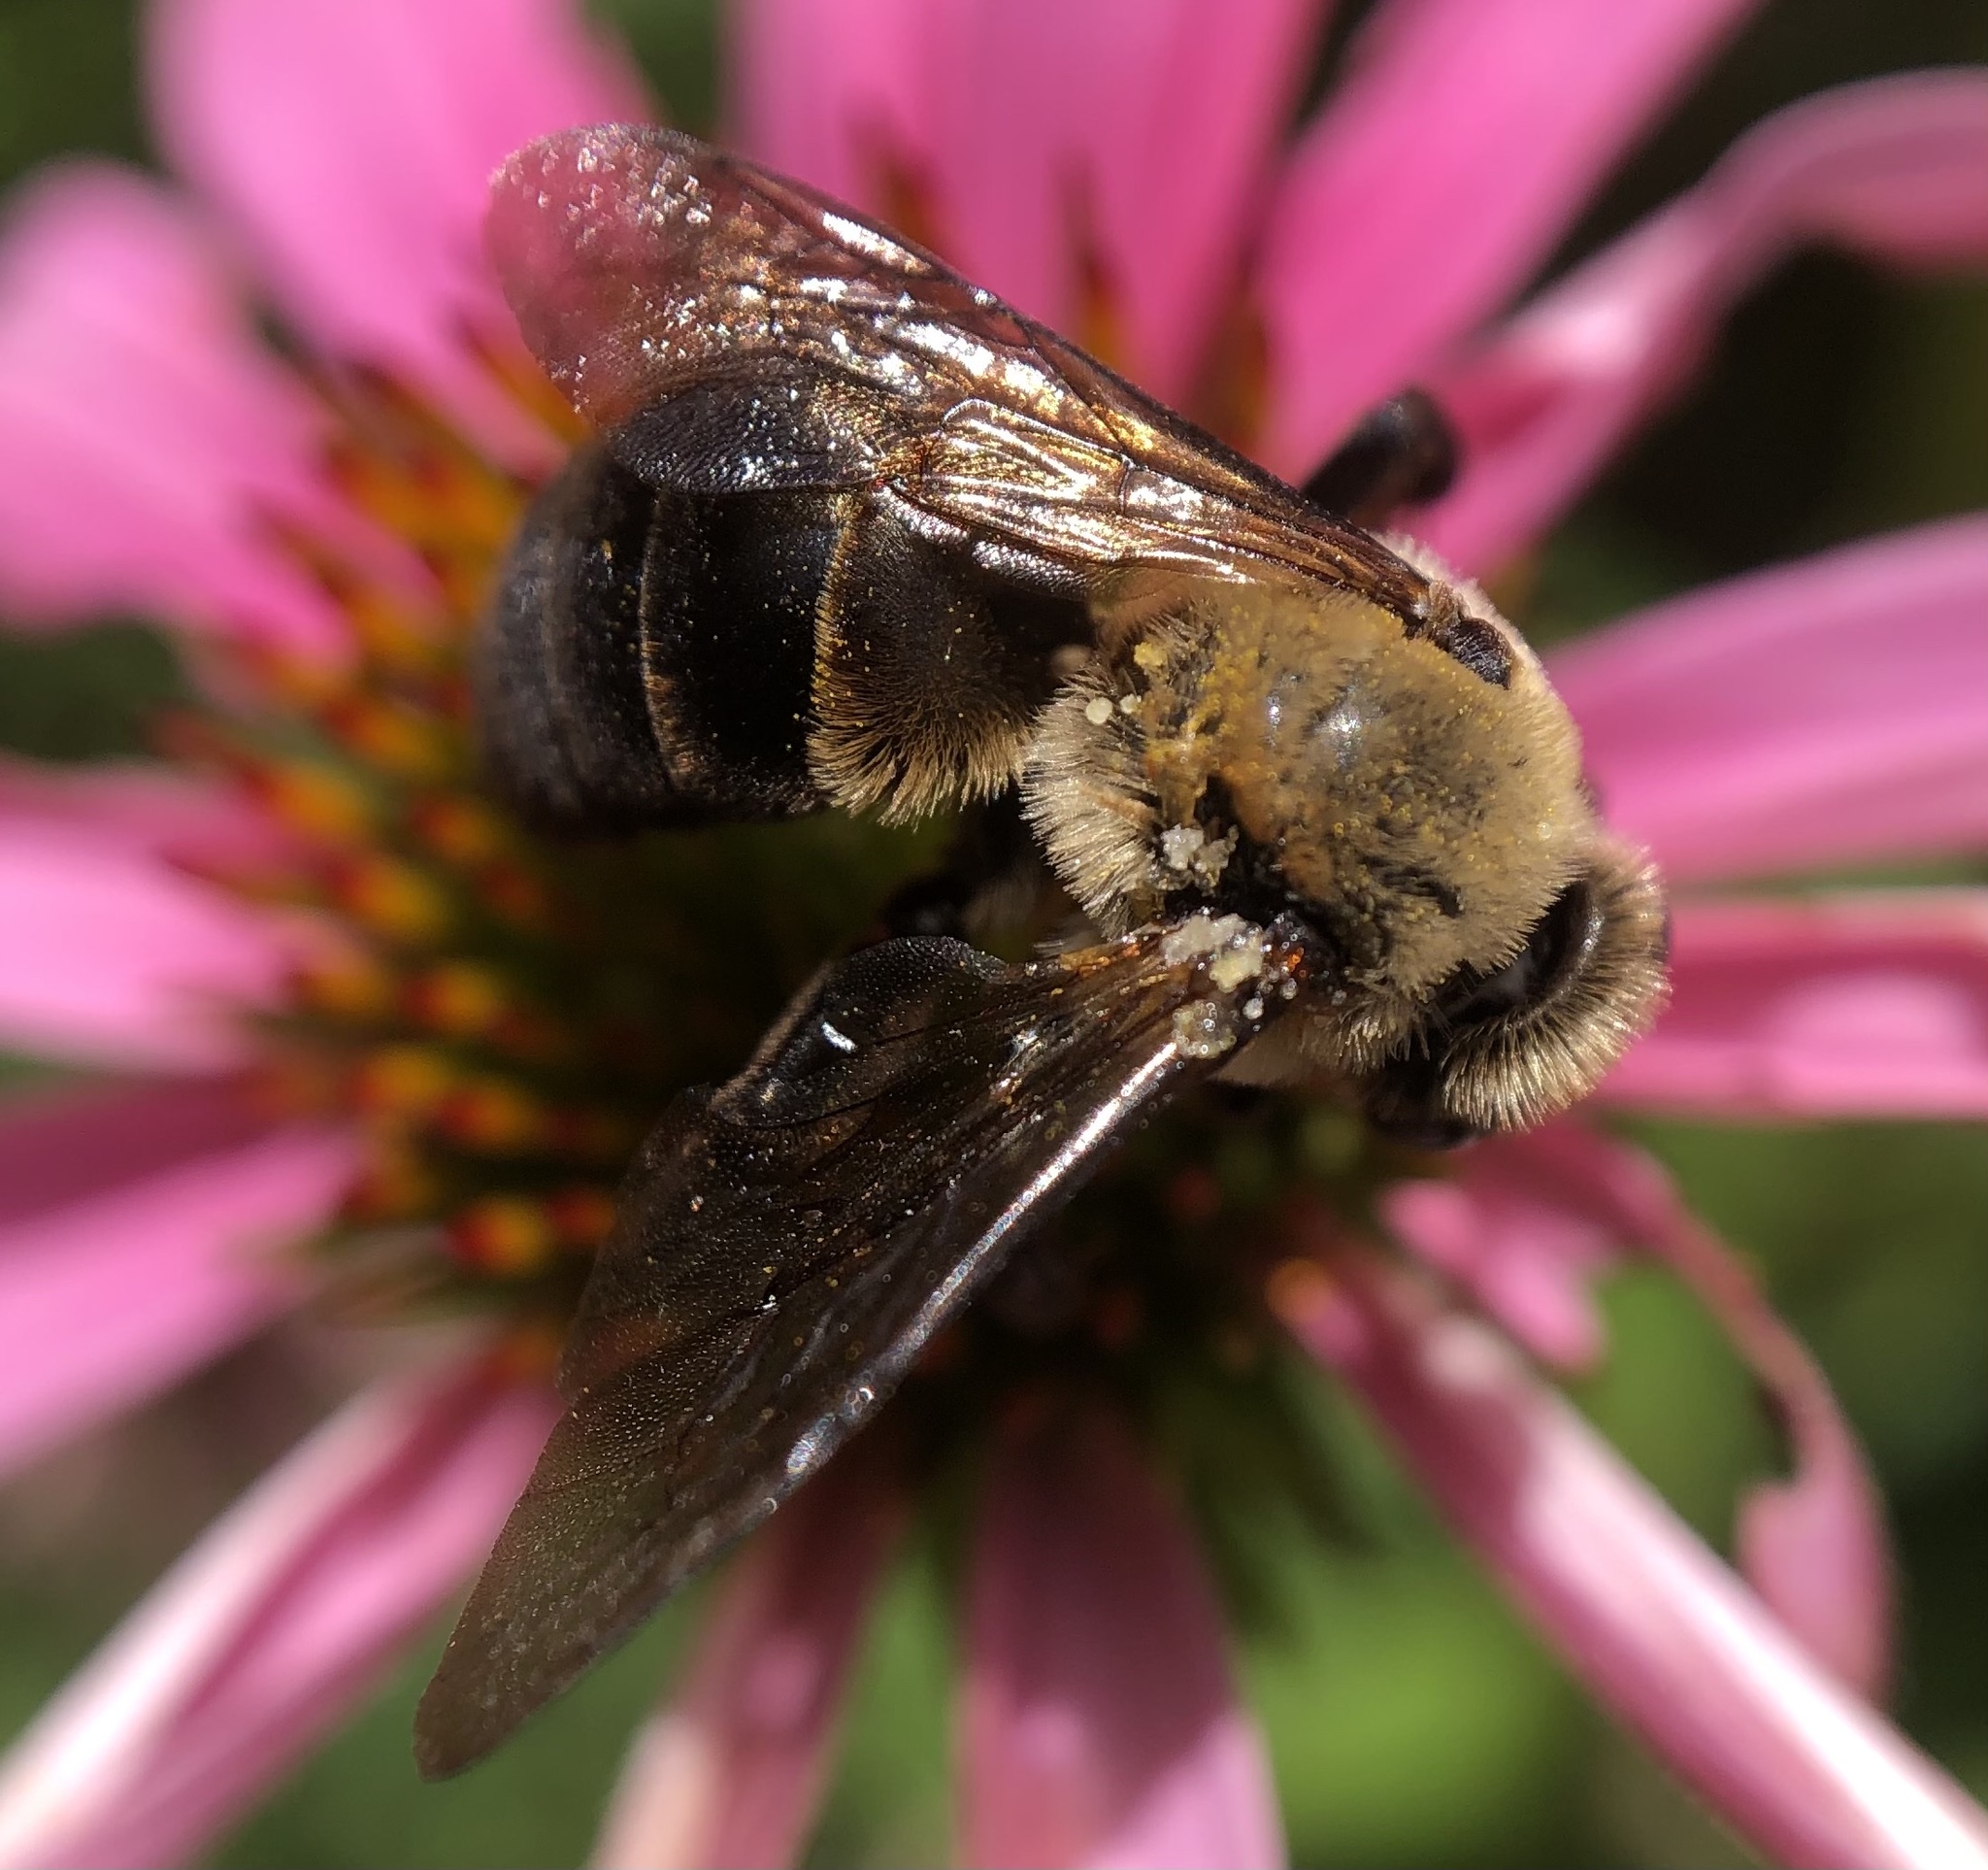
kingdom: Animalia
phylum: Arthropoda
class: Insecta
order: Hymenoptera
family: Apidae
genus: Ptilothrix
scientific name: Ptilothrix bombiformis
